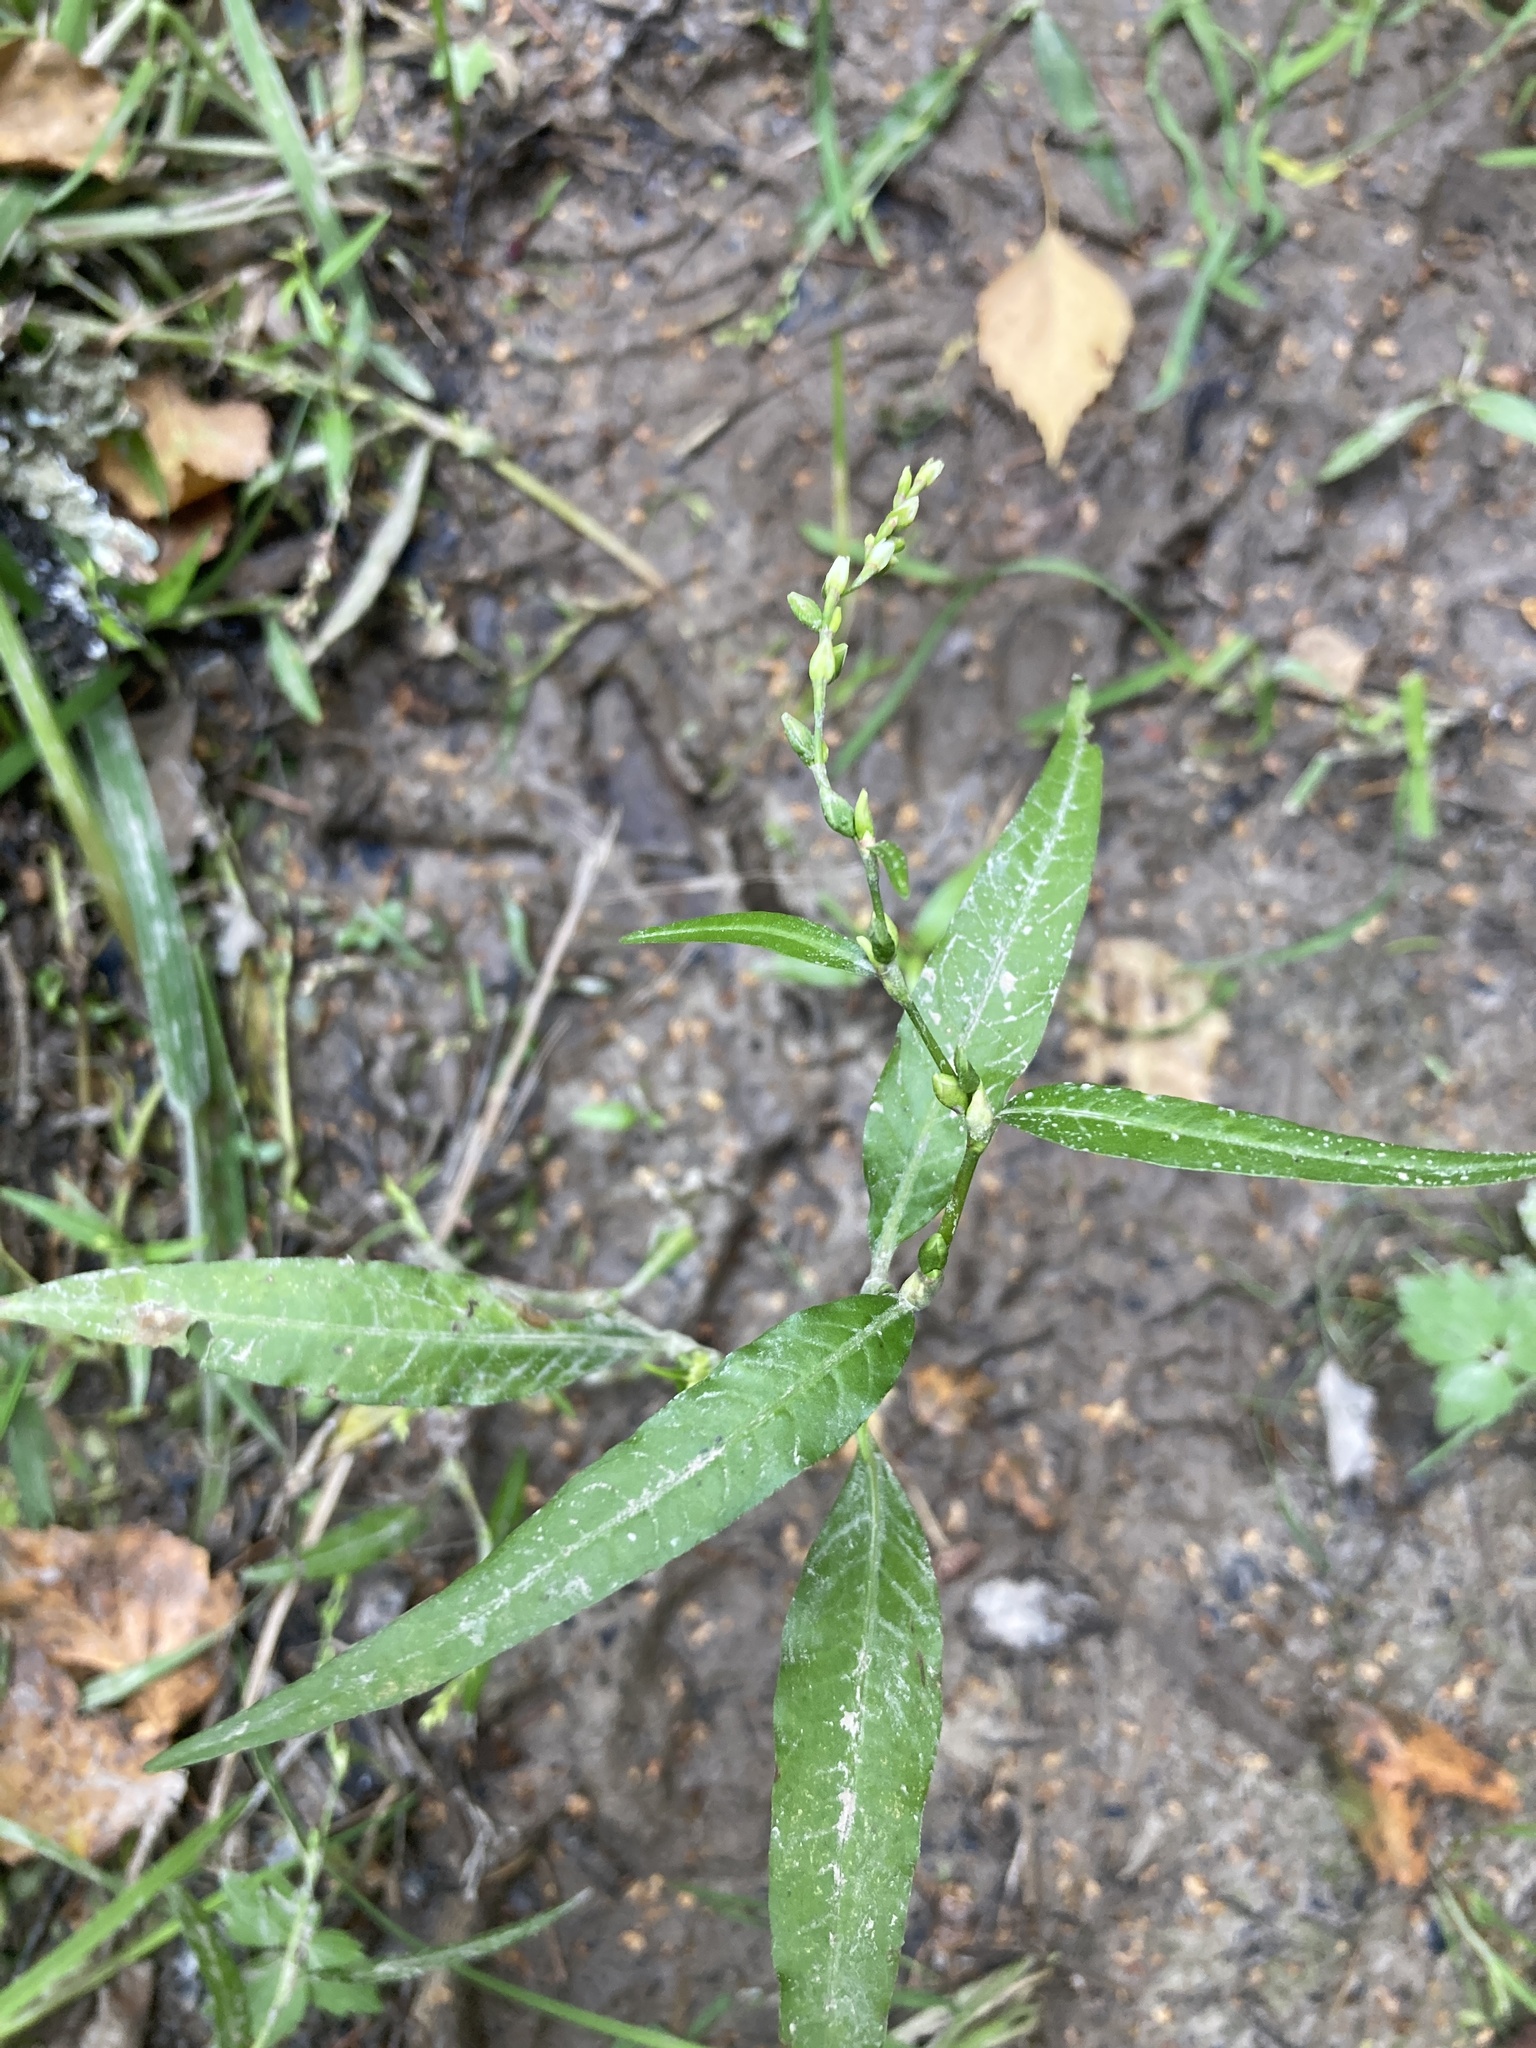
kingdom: Plantae
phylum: Tracheophyta
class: Magnoliopsida
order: Caryophyllales
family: Polygonaceae
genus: Persicaria
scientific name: Persicaria hydropiper
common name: Water-pepper
